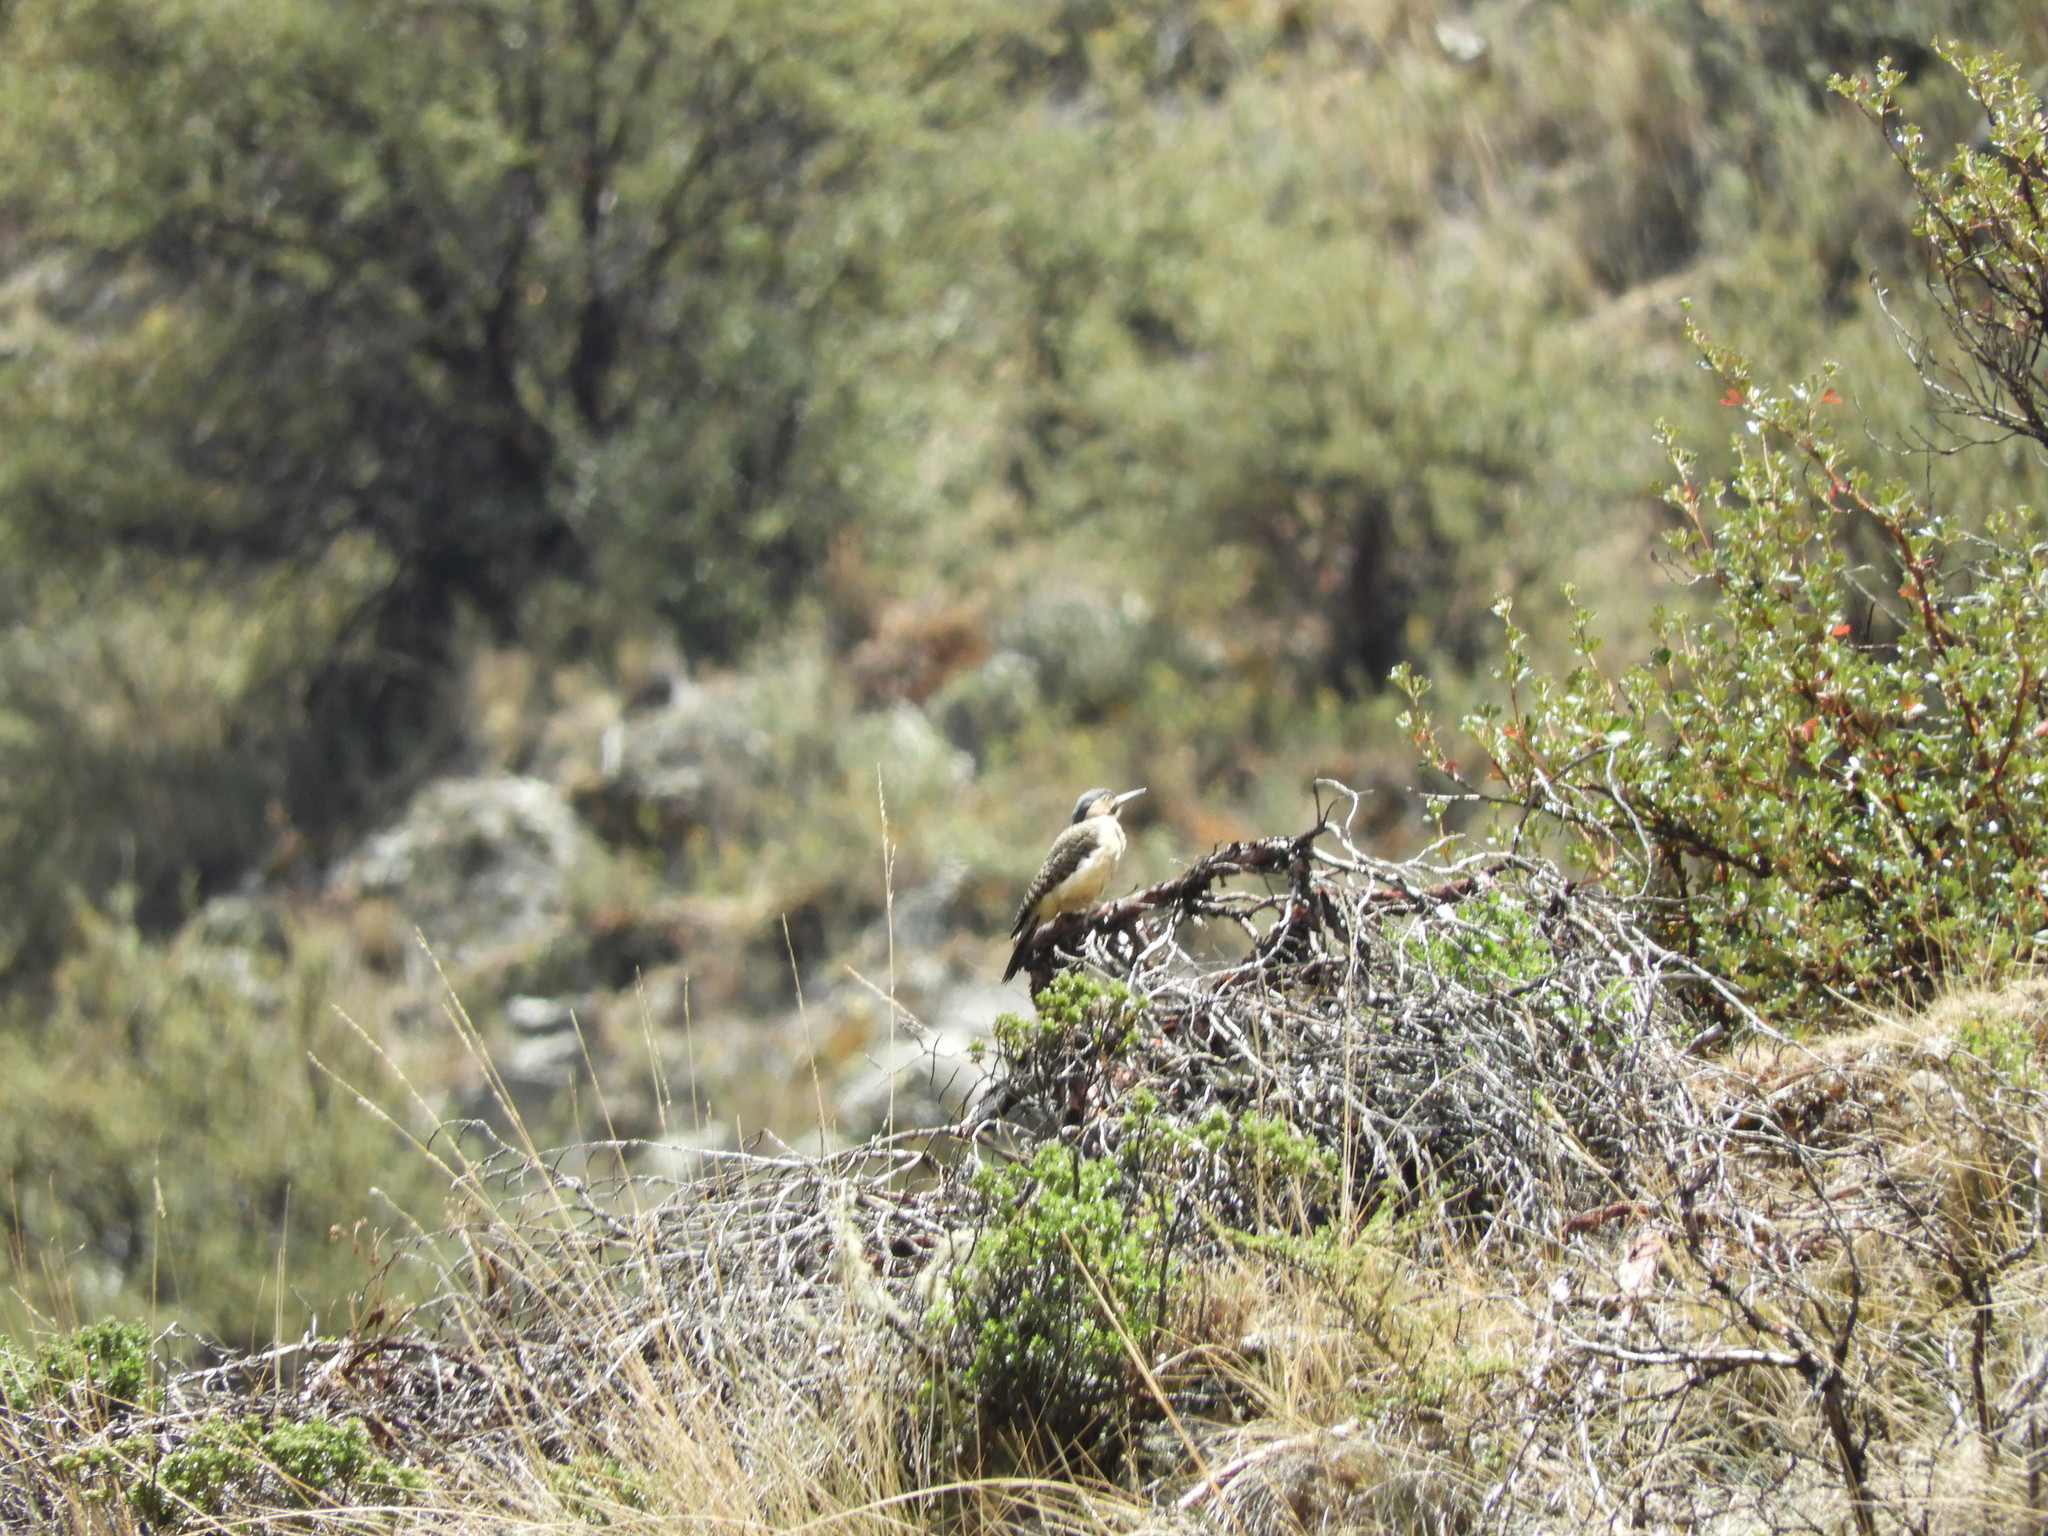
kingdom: Animalia
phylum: Chordata
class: Aves
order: Piciformes
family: Picidae
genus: Colaptes
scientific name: Colaptes rupicola
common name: Andean flicker
